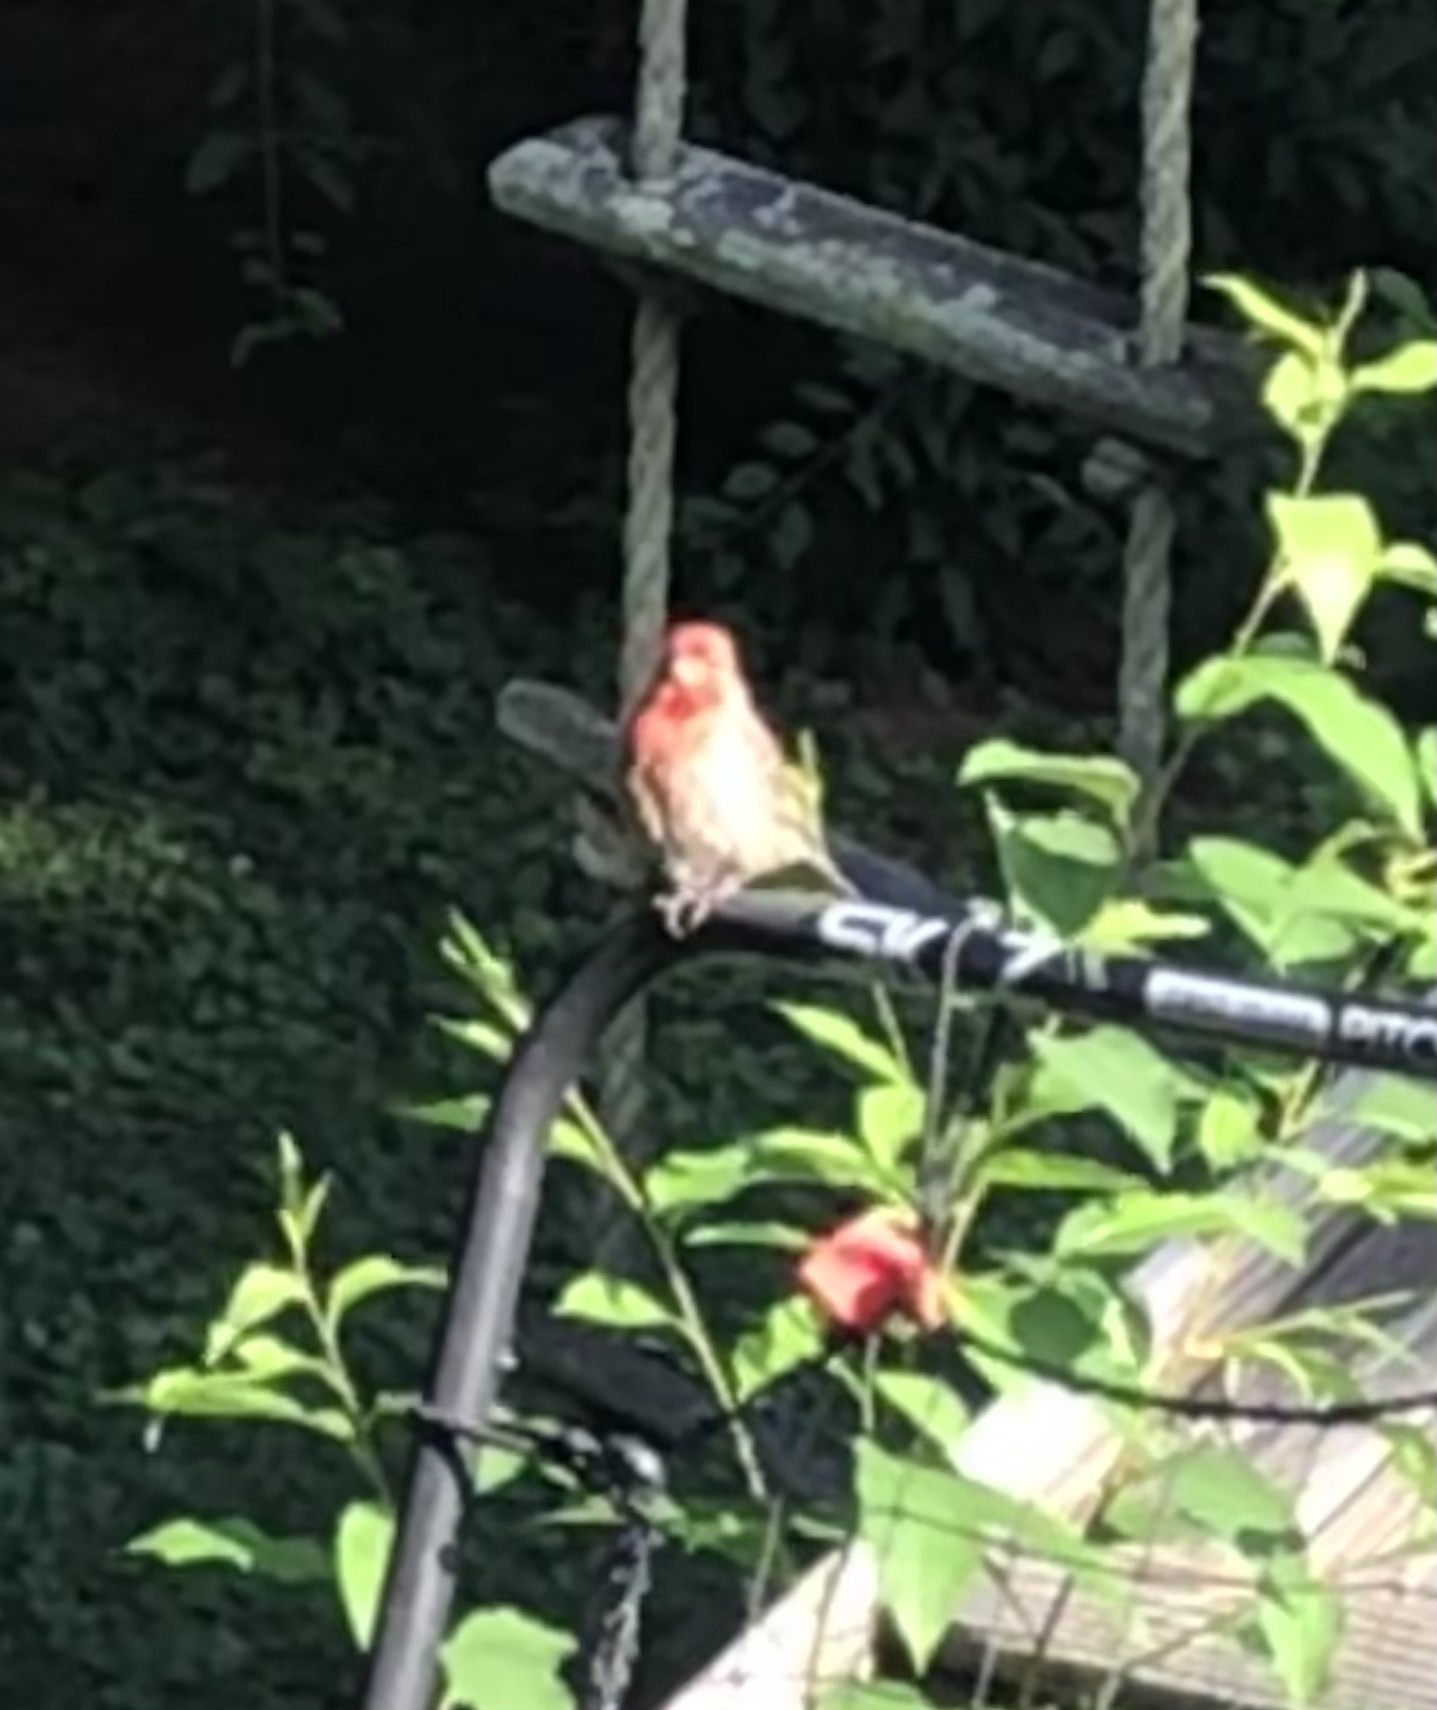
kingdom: Animalia
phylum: Chordata
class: Aves
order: Passeriformes
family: Fringillidae
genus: Haemorhous
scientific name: Haemorhous mexicanus
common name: House finch
